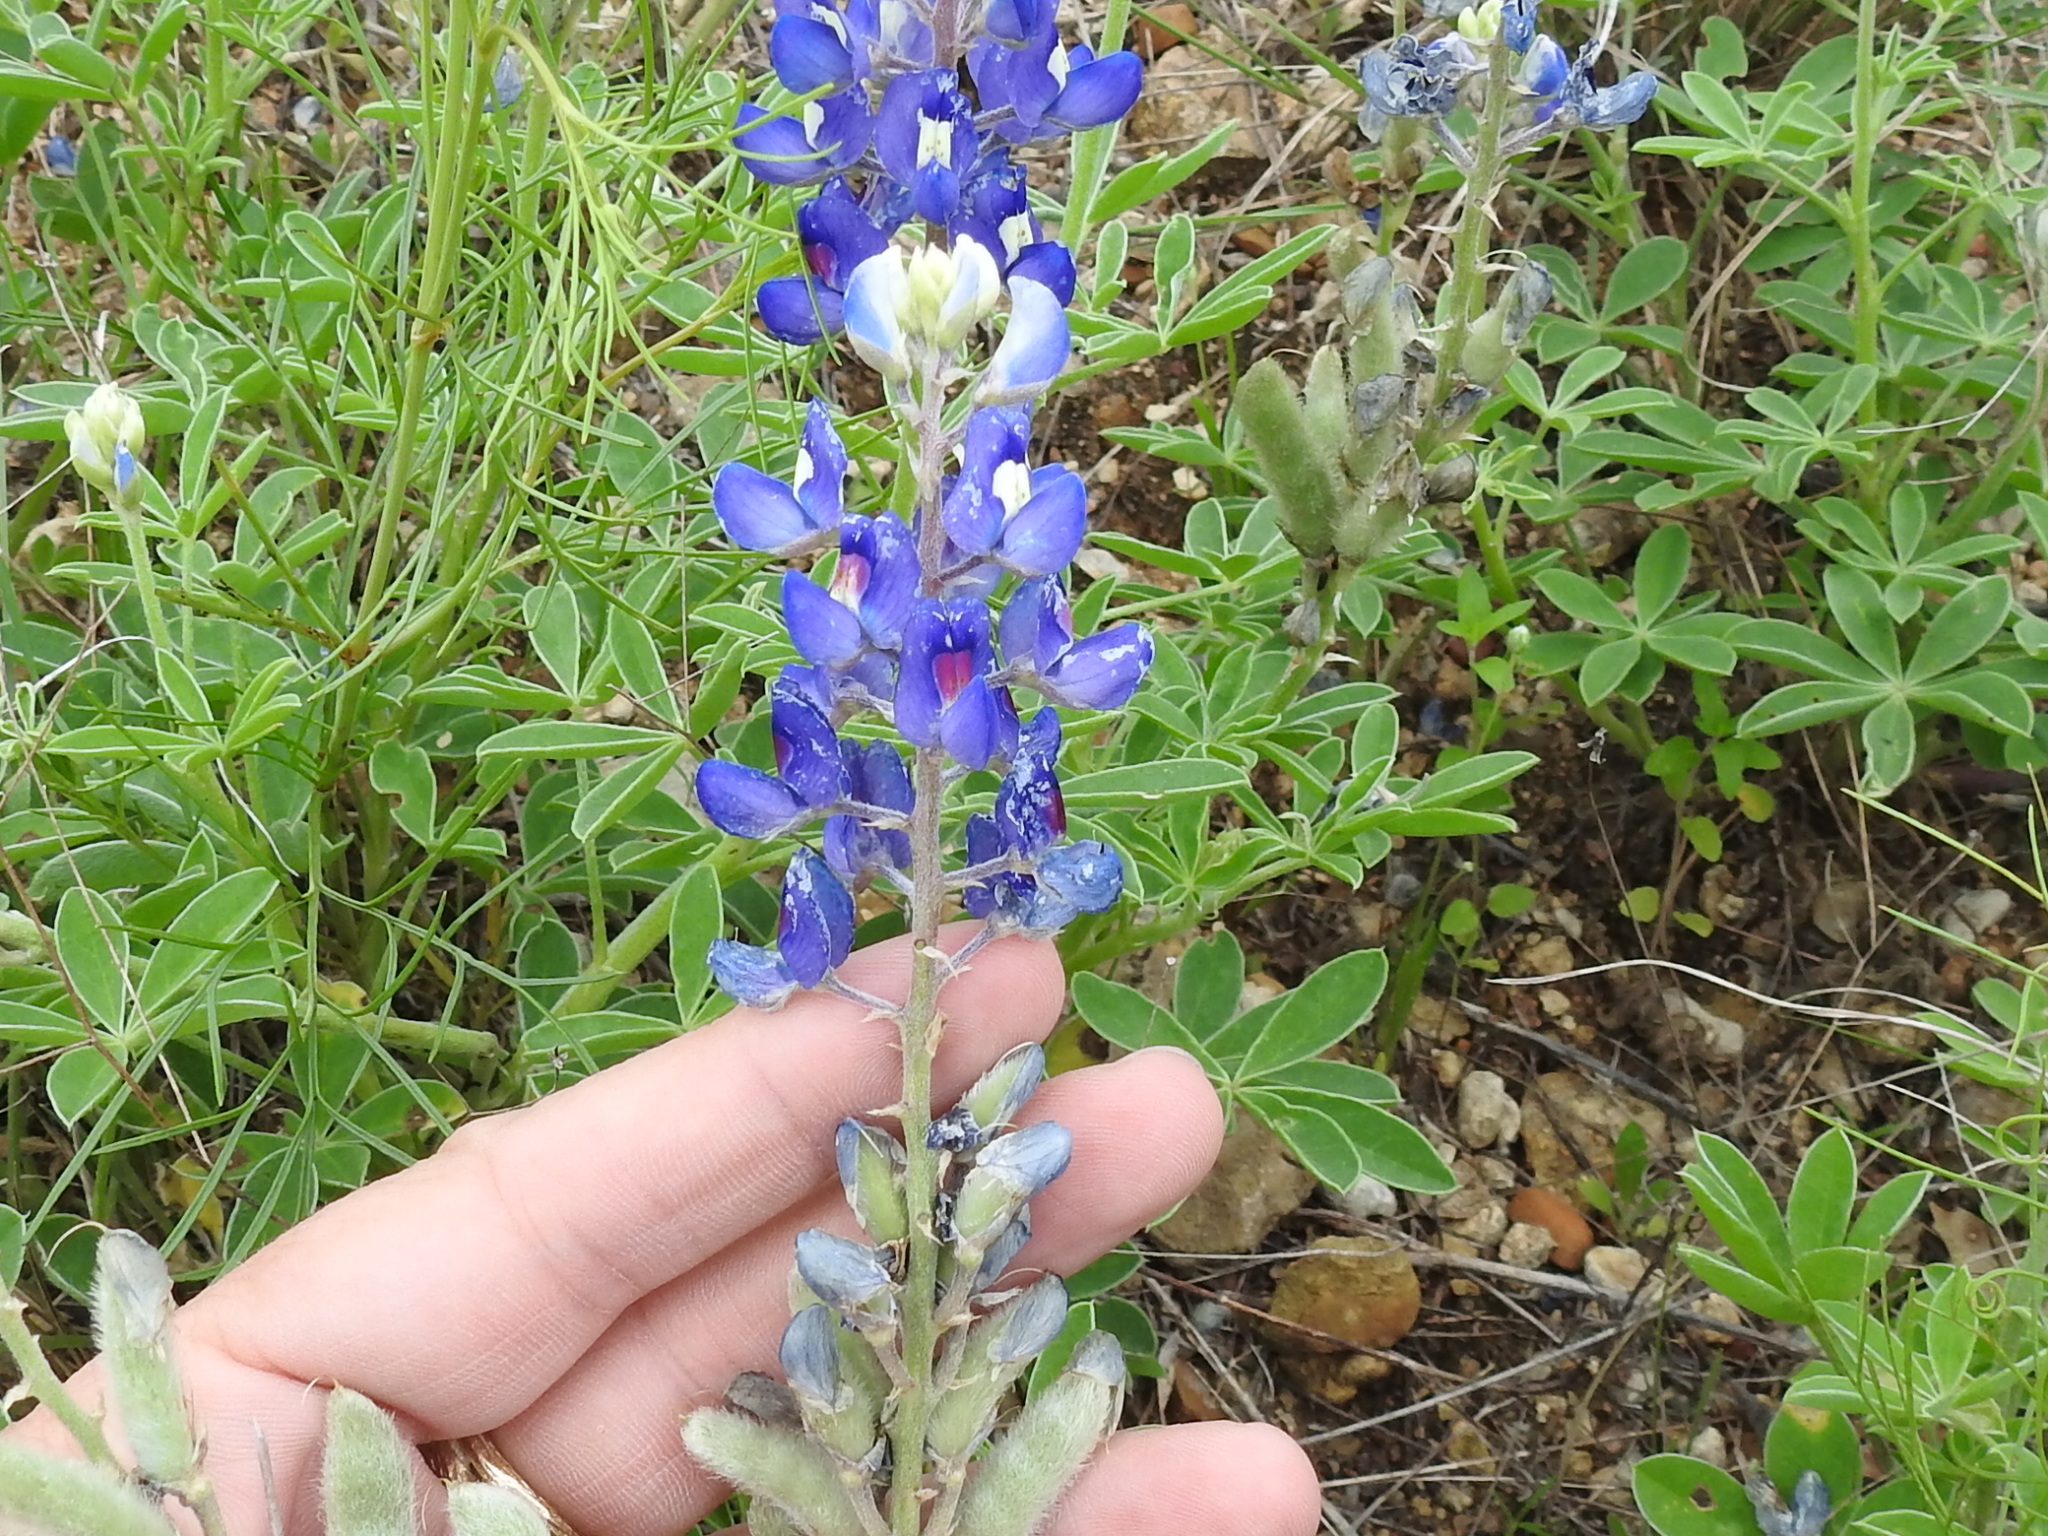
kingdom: Plantae
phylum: Tracheophyta
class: Magnoliopsida
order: Fabales
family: Fabaceae
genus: Lupinus
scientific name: Lupinus texensis
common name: Texas bluebonnet
